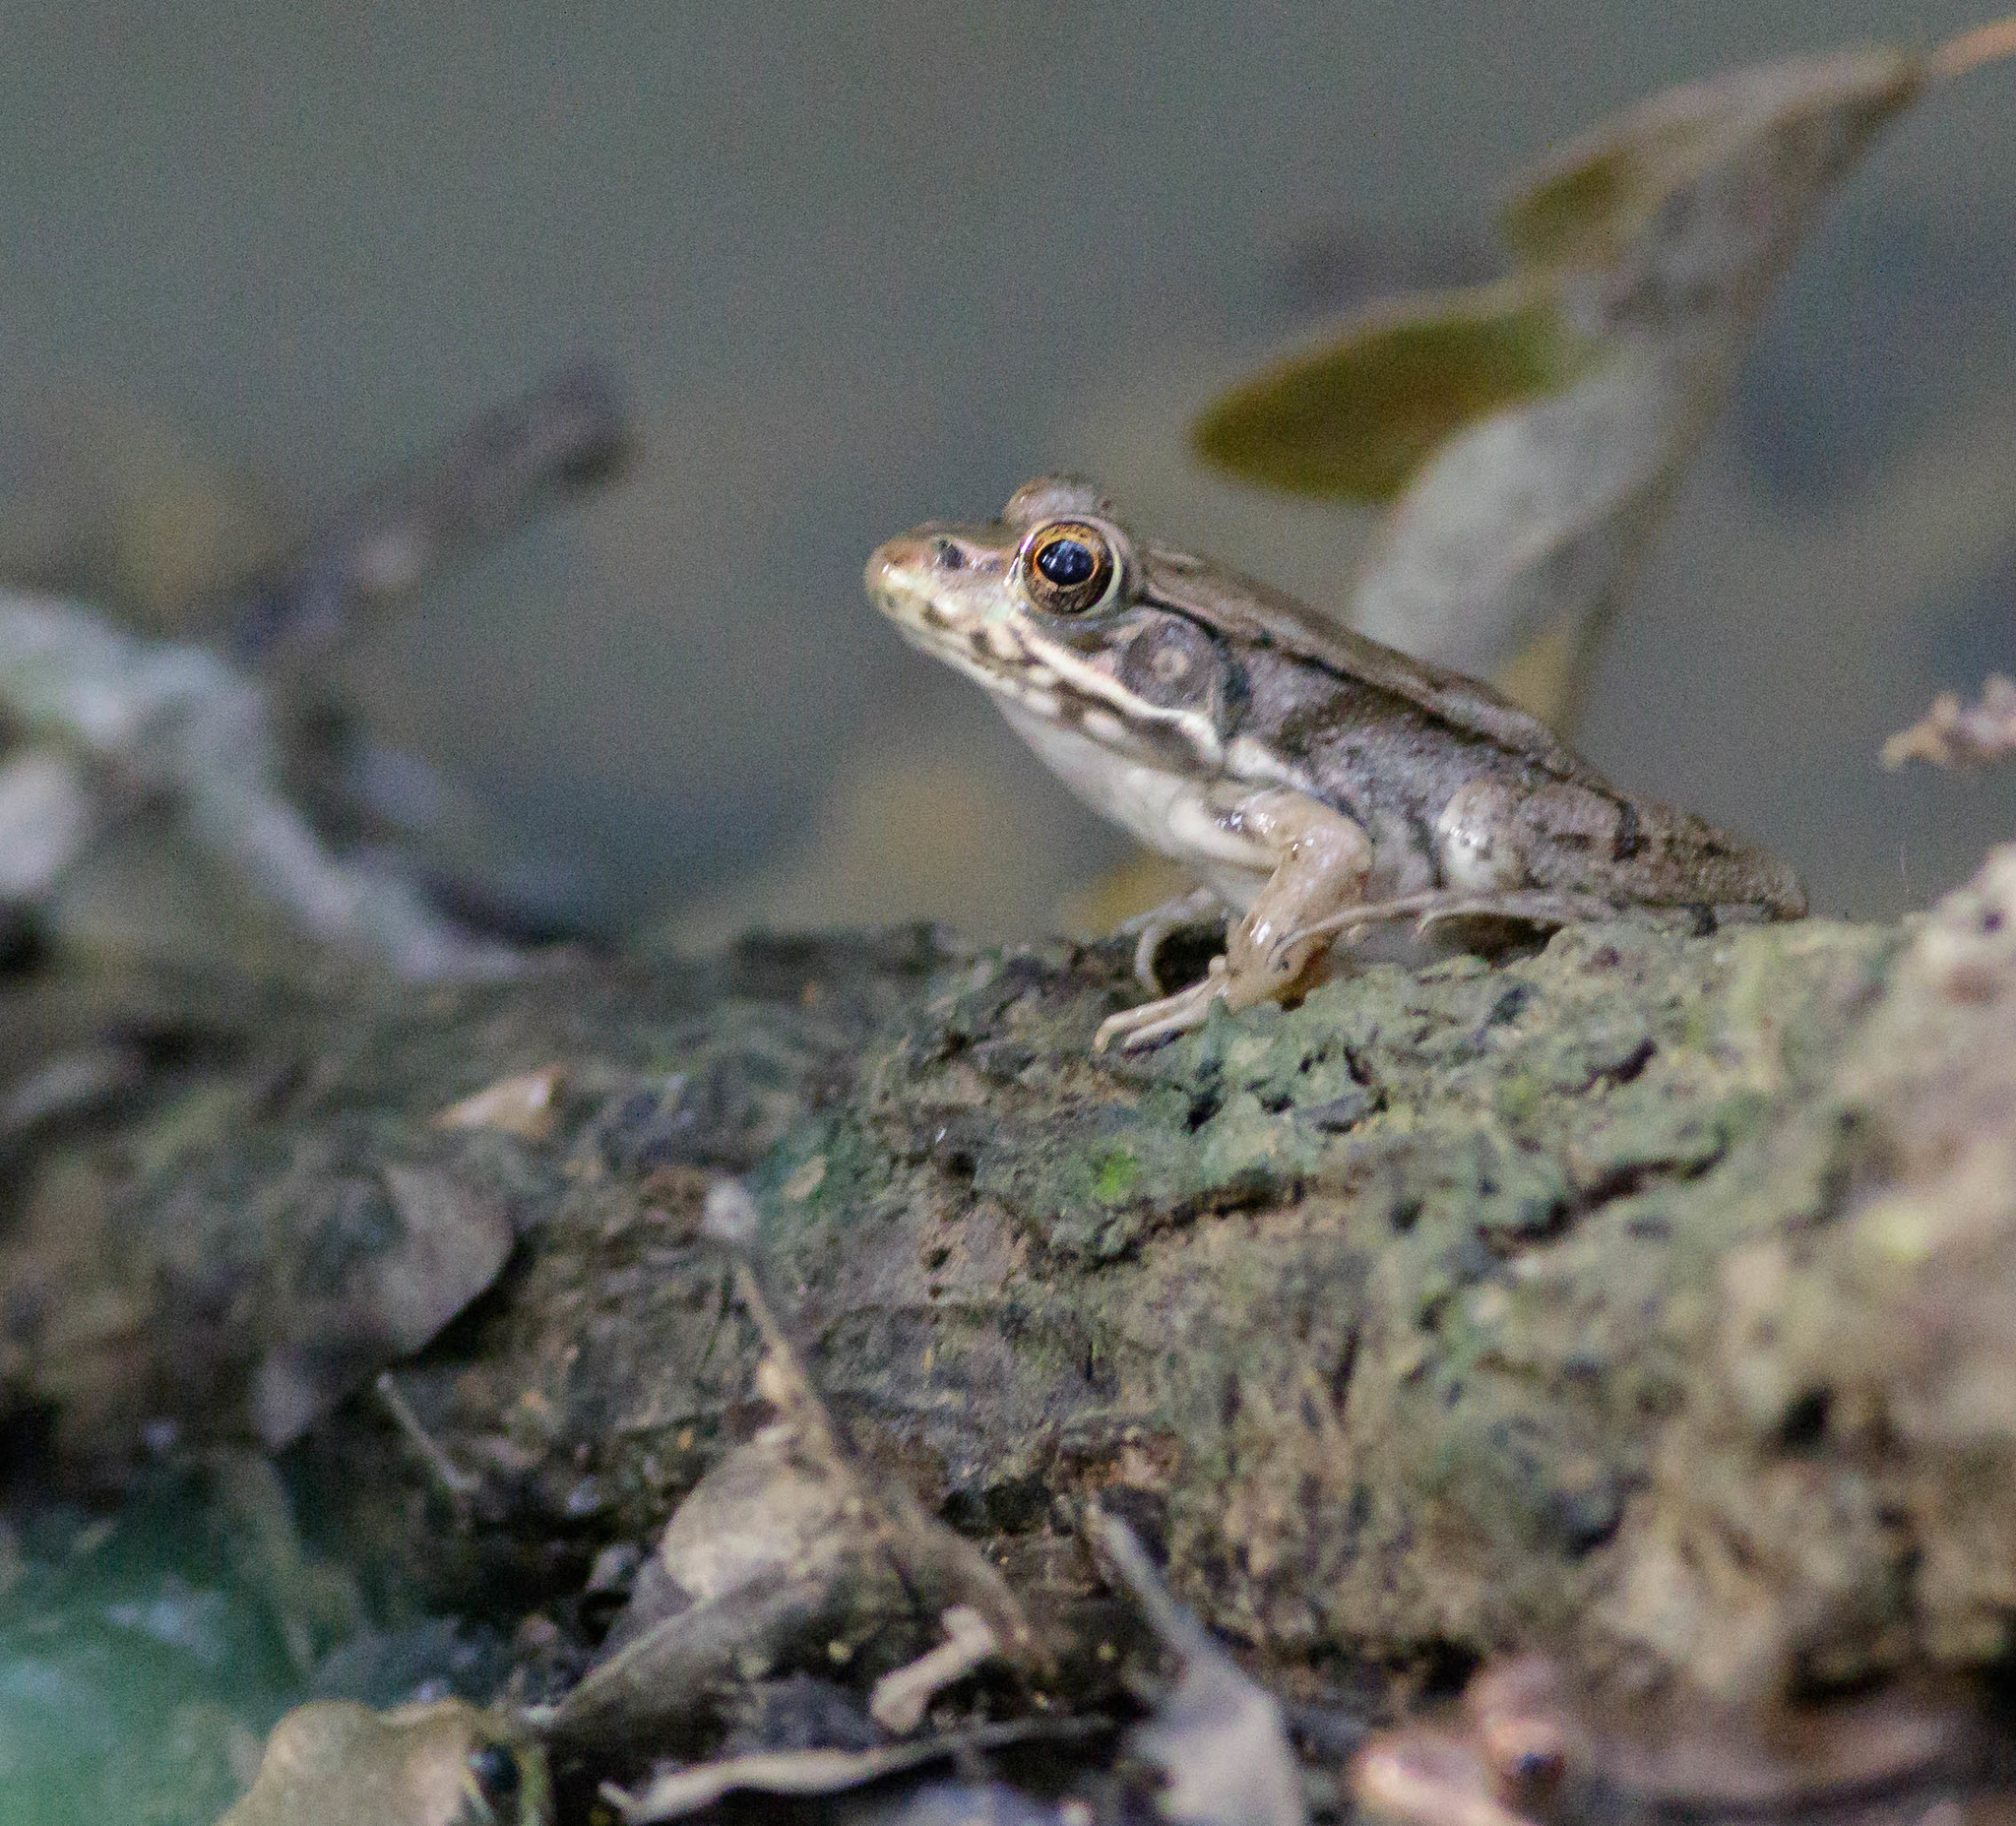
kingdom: Animalia
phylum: Chordata
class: Amphibia
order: Anura
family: Ranidae
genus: Lithobates
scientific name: Lithobates clamitans
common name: Green frog
